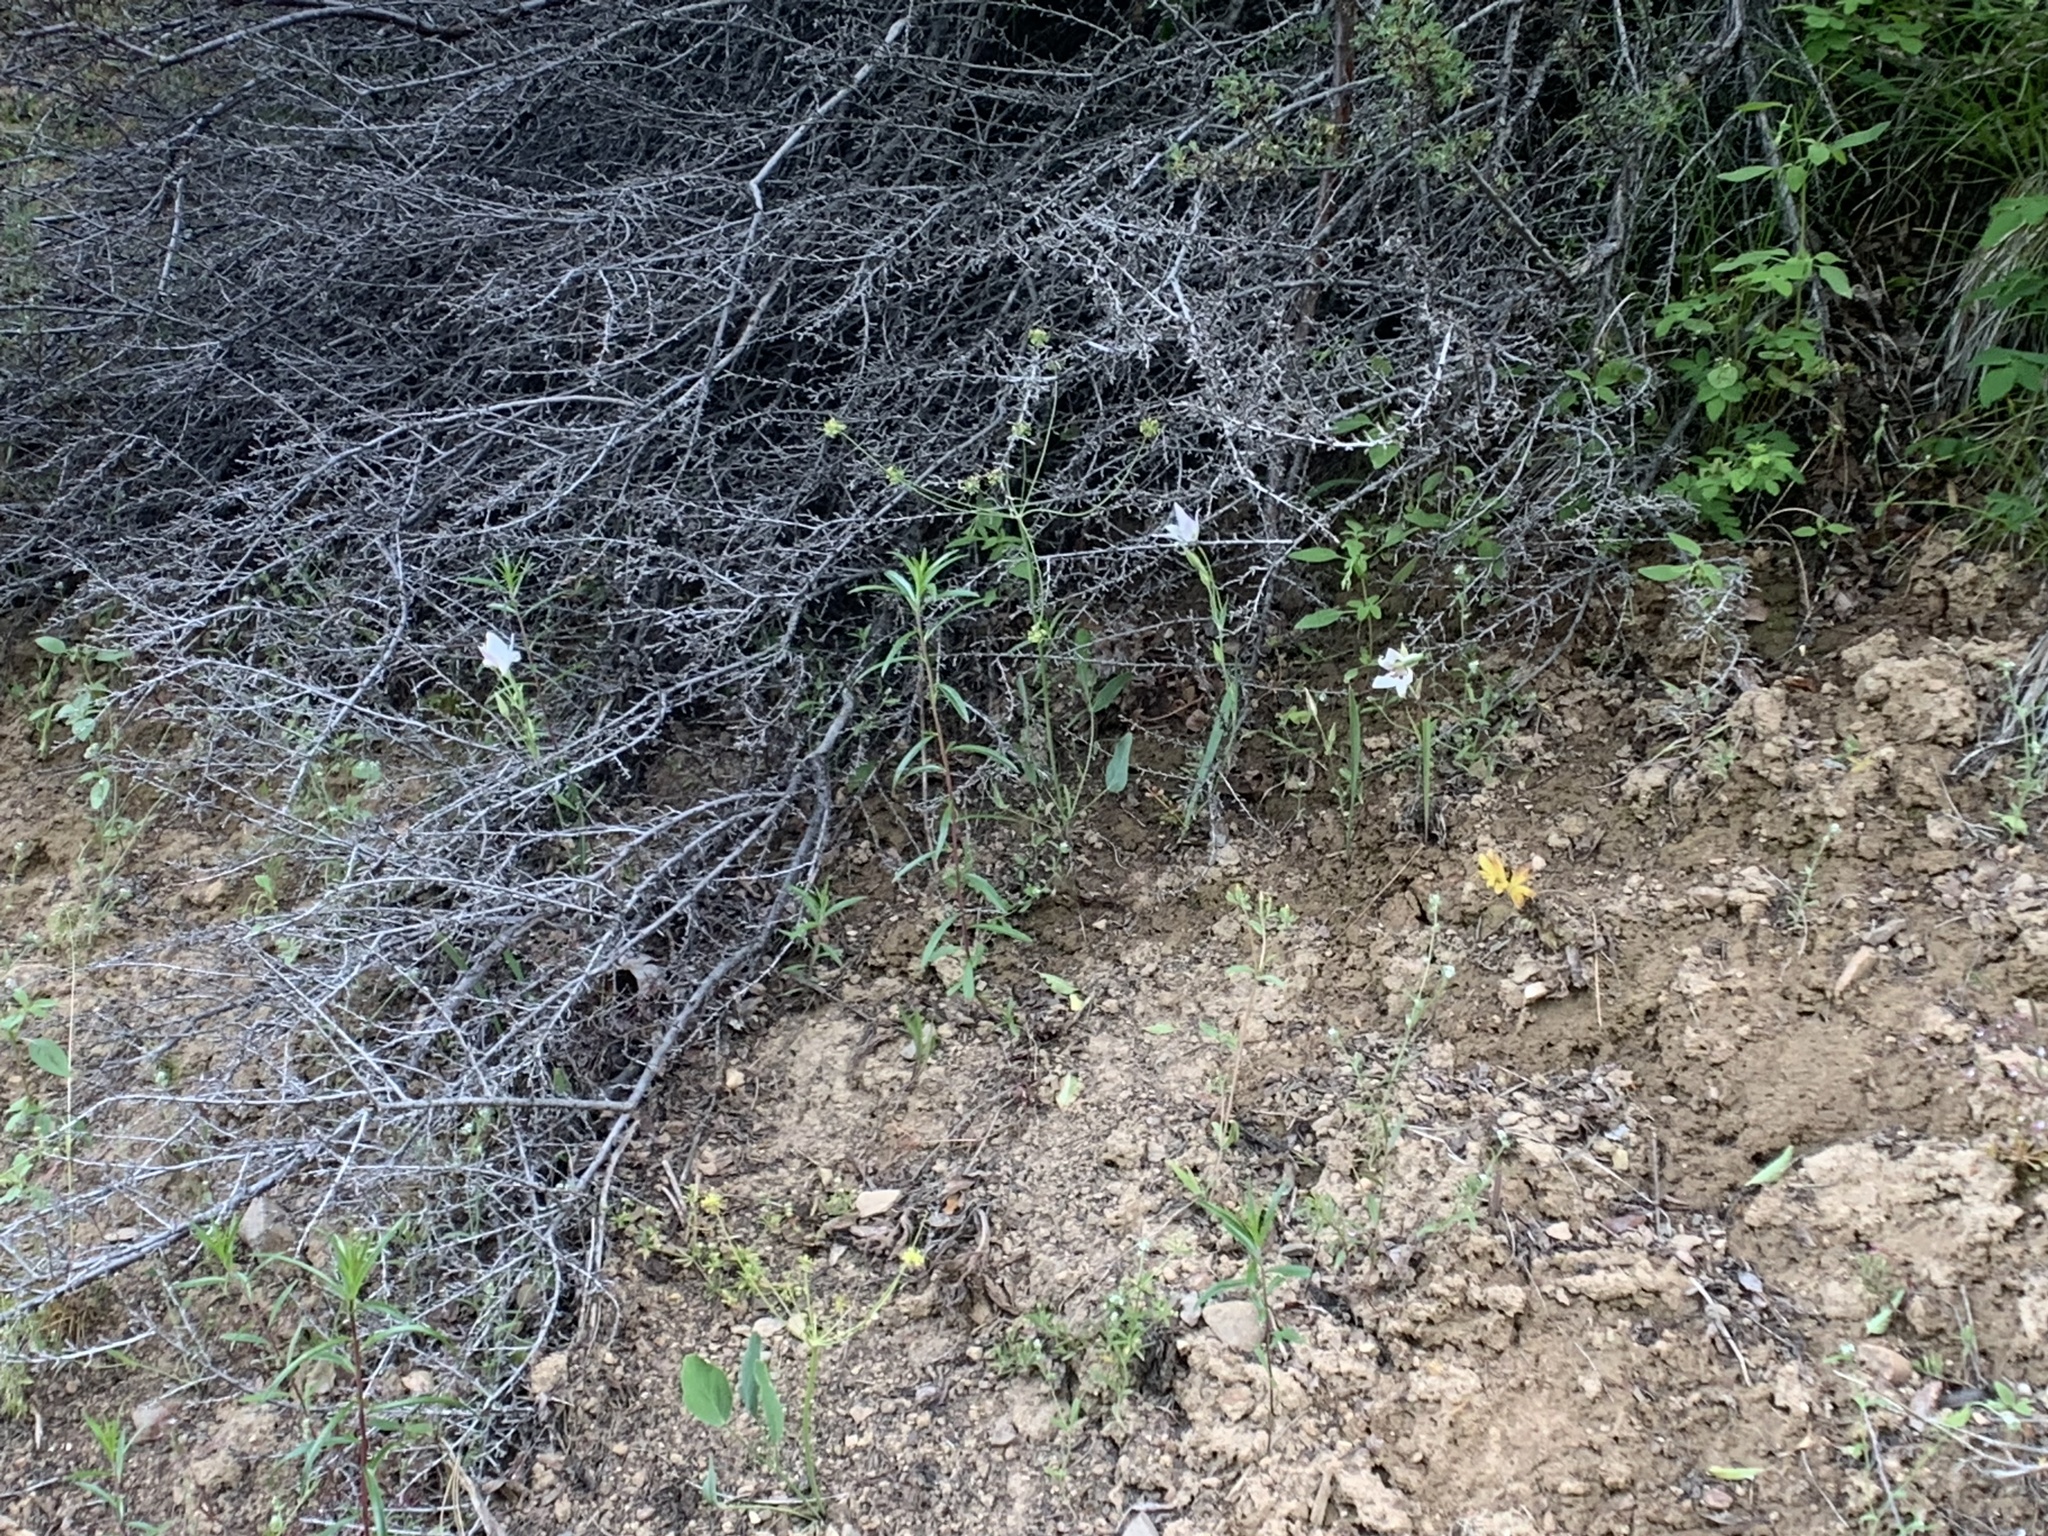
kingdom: Plantae
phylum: Tracheophyta
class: Liliopsida
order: Liliales
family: Liliaceae
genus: Calochortus
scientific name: Calochortus lyallii
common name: Lyall's mariposa lily
